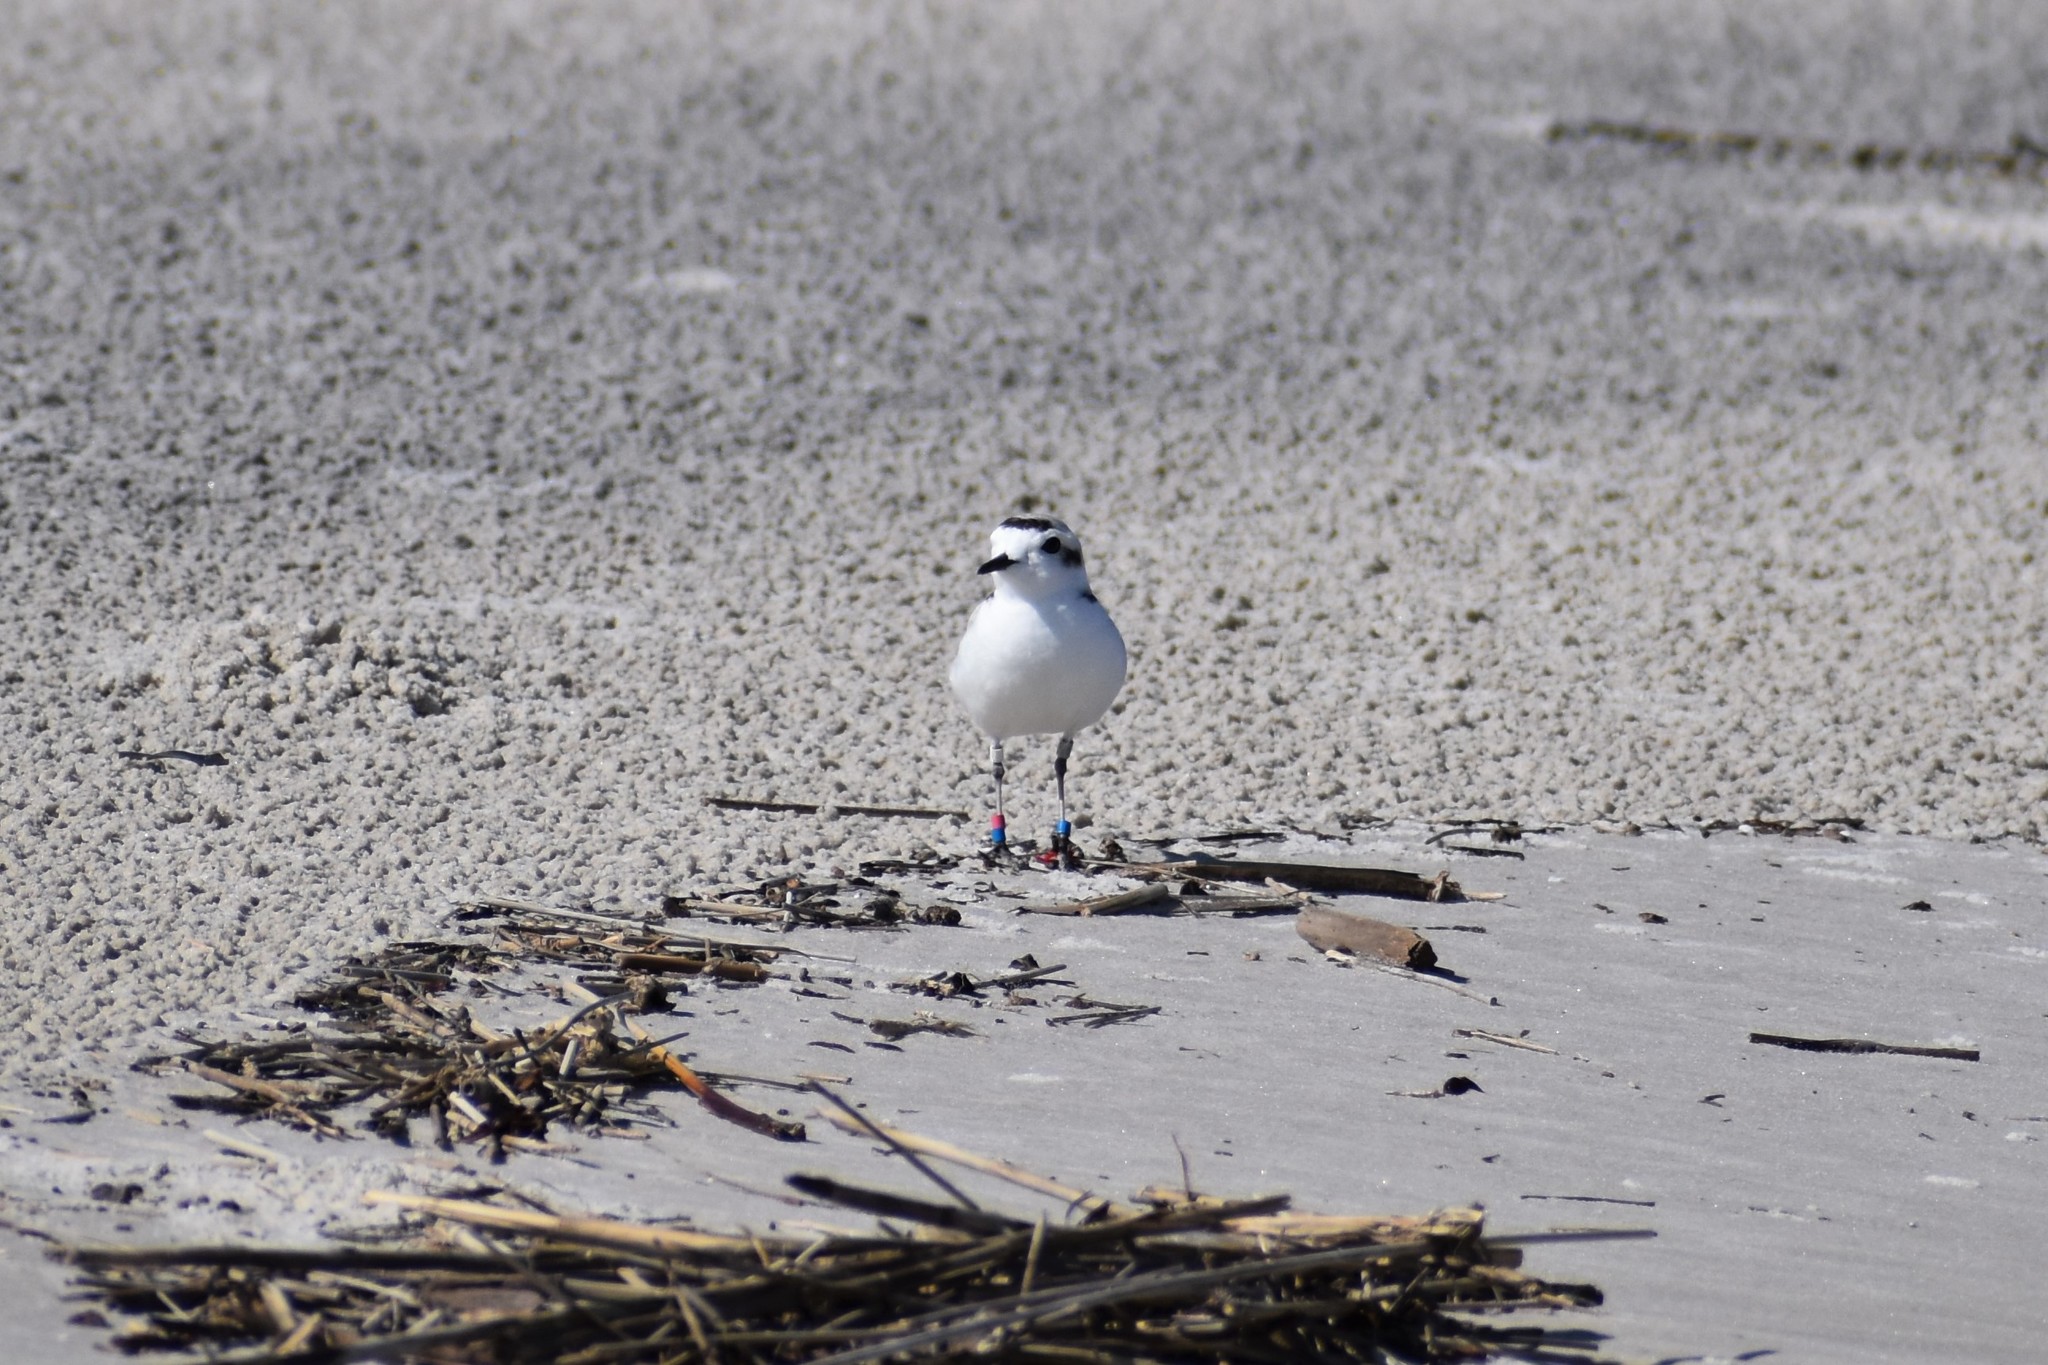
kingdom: Animalia
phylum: Chordata
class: Aves
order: Charadriiformes
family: Charadriidae
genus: Anarhynchus
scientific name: Anarhynchus
